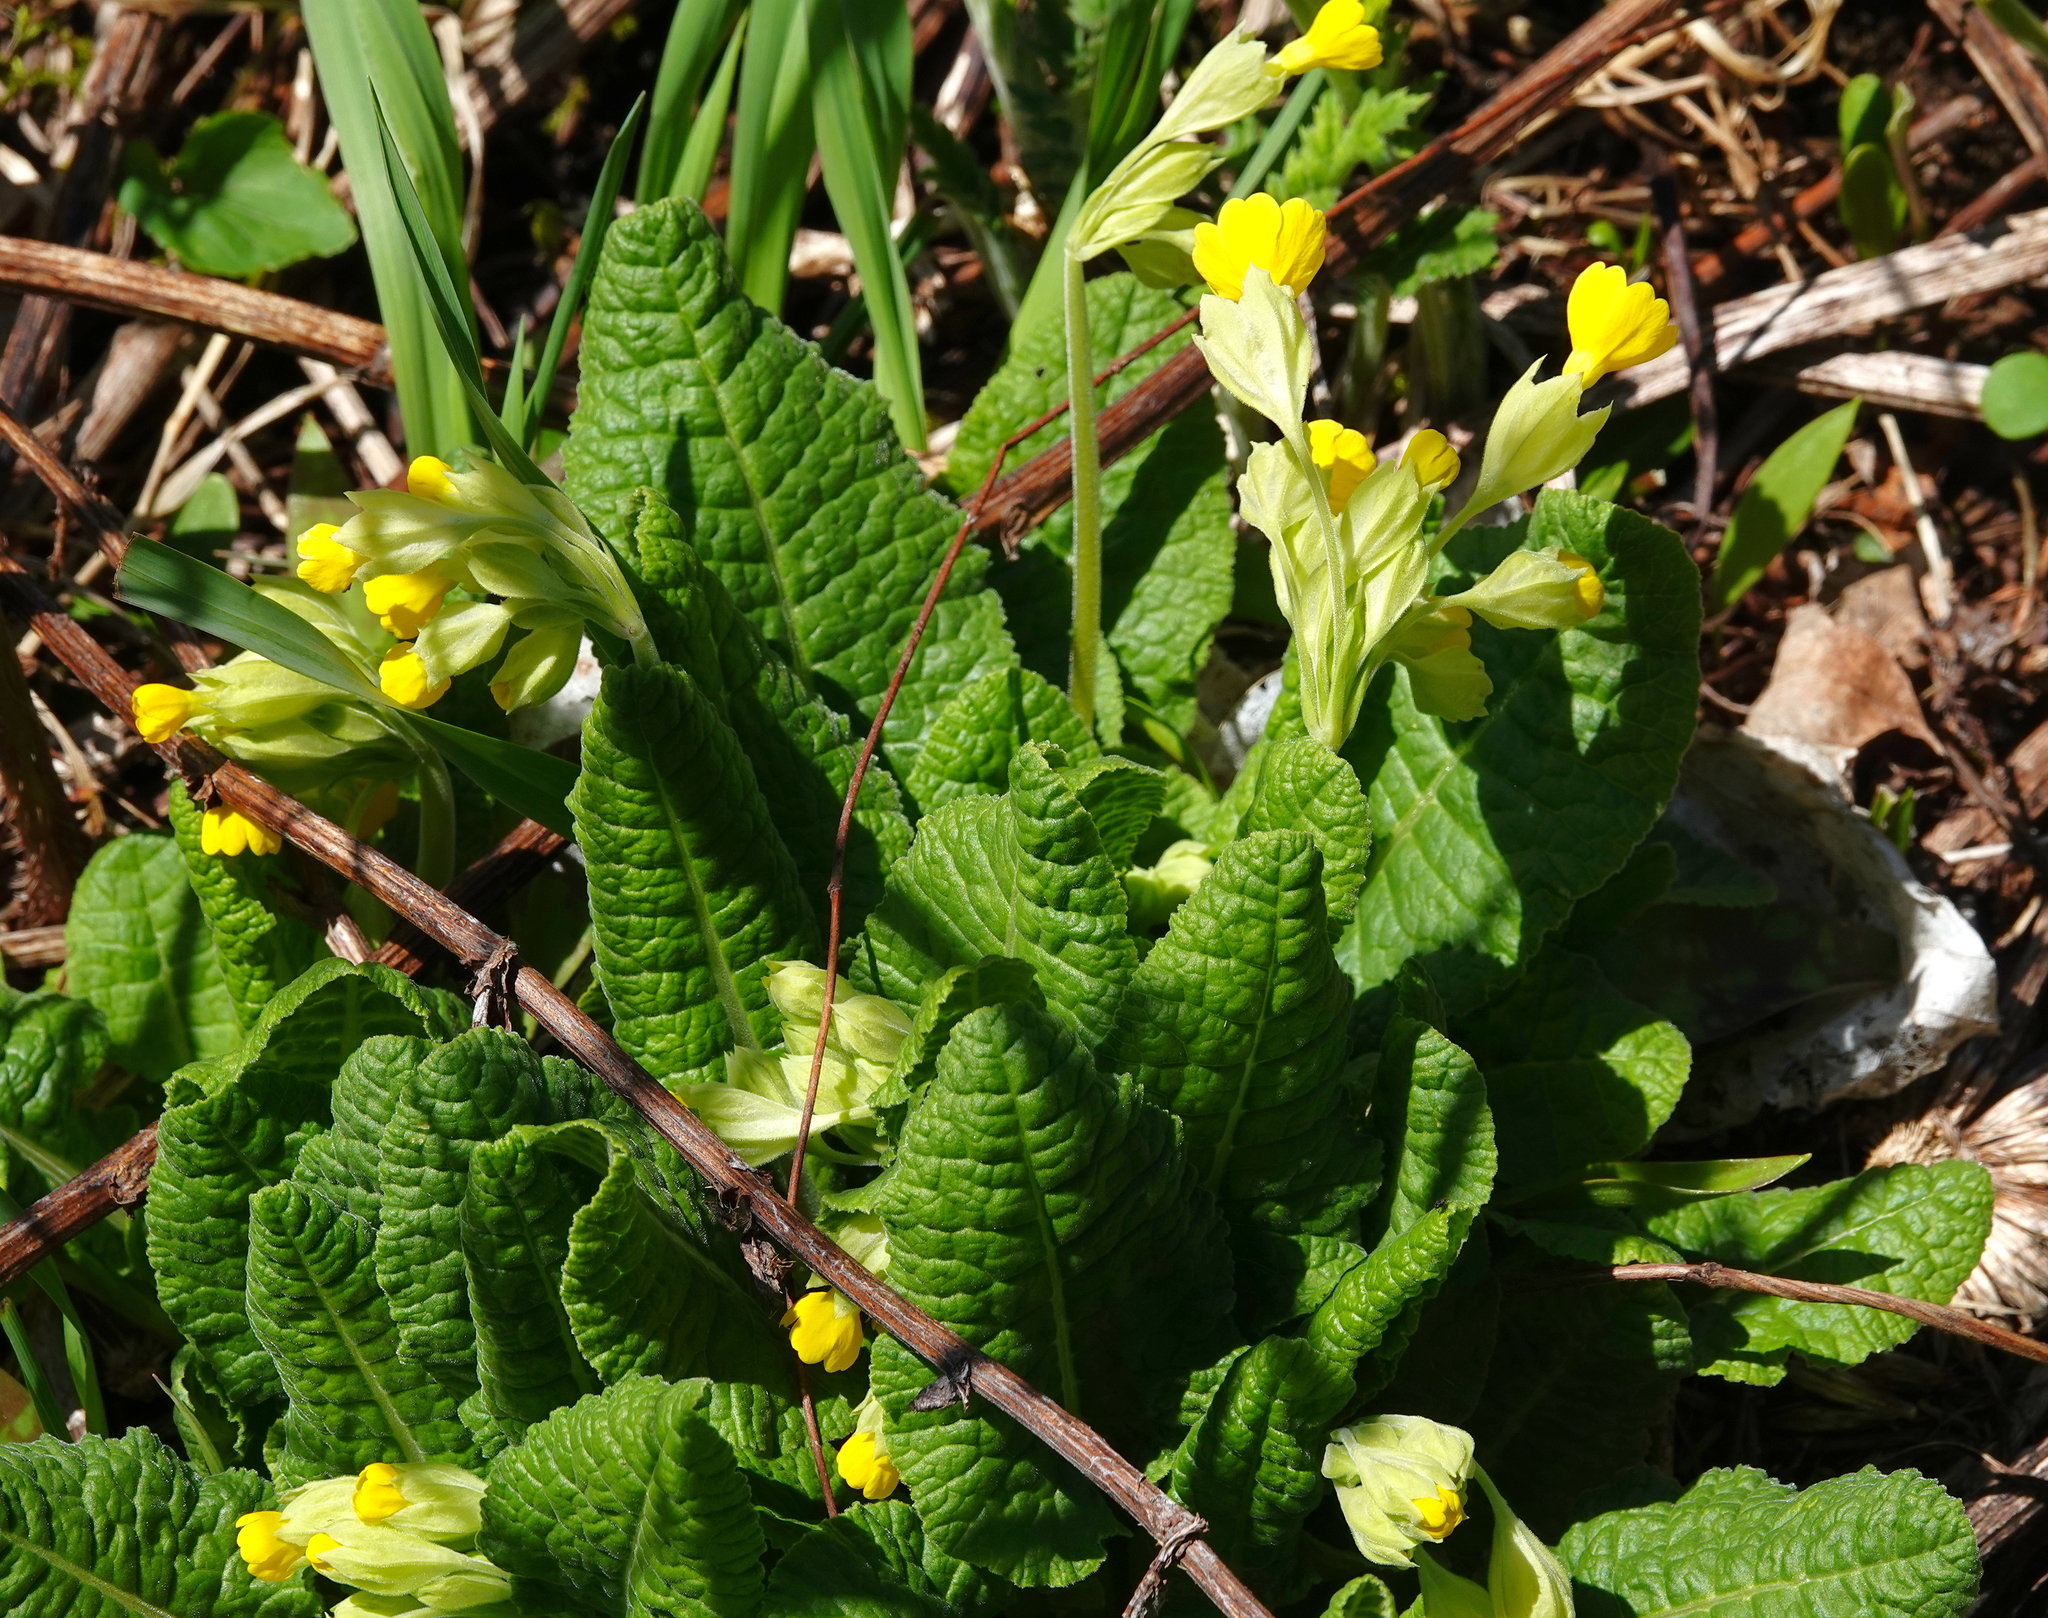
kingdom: Plantae
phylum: Tracheophyta
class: Magnoliopsida
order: Ericales
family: Primulaceae
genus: Primula
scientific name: Primula veris
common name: Cowslip
